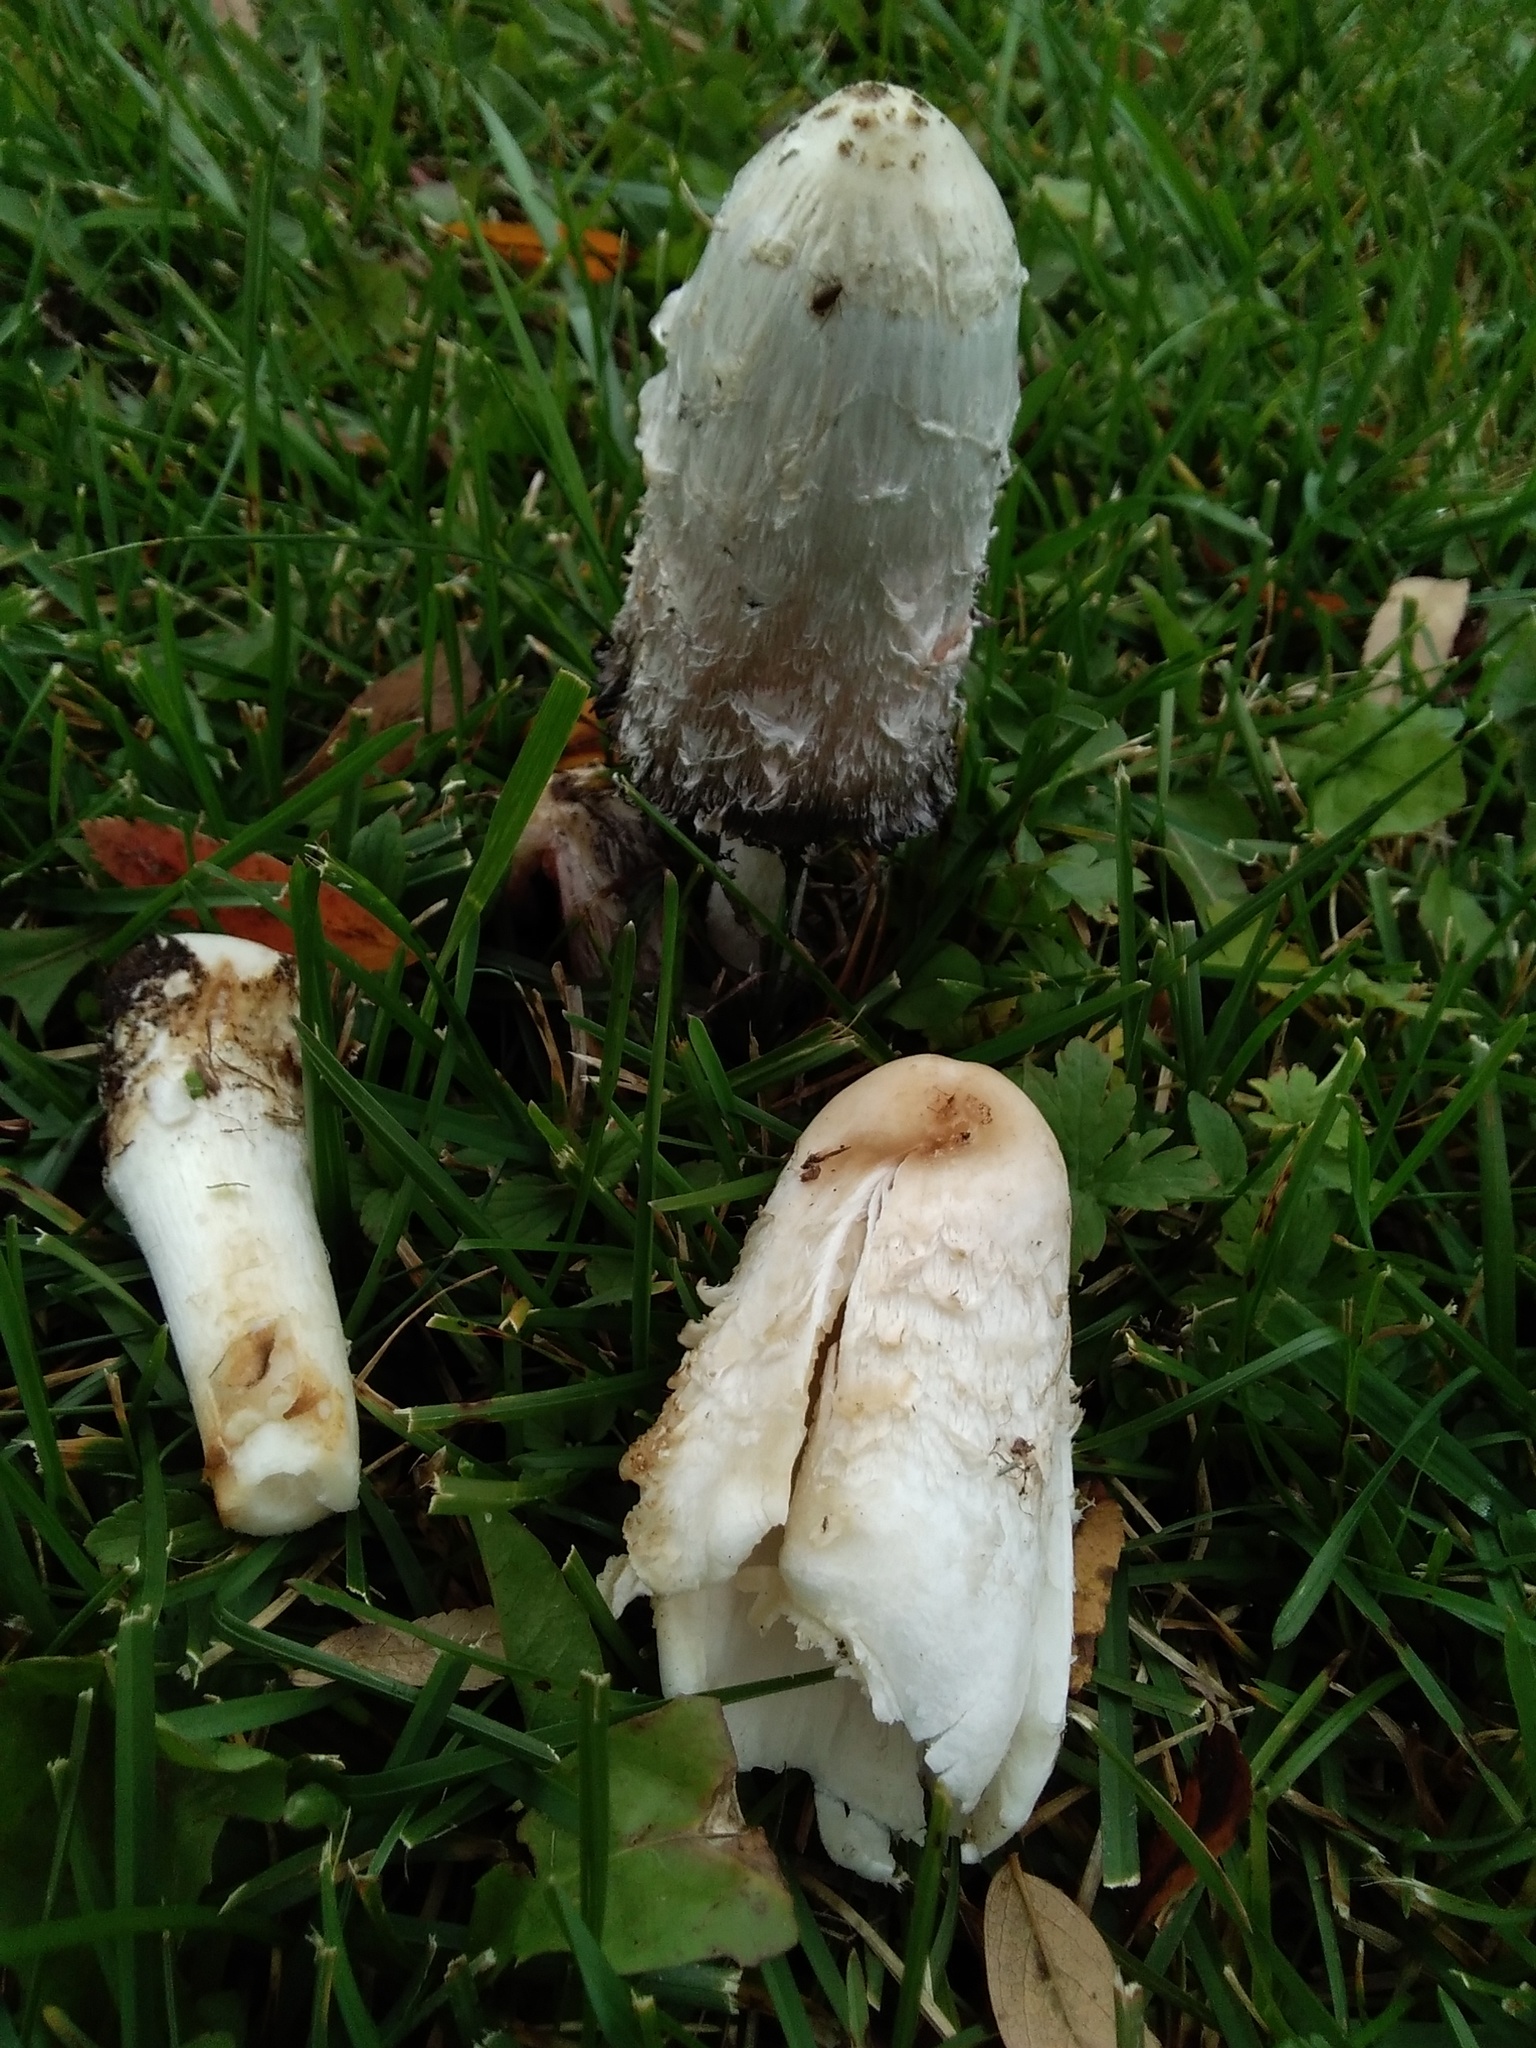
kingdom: Fungi
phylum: Basidiomycota
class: Agaricomycetes
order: Agaricales
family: Agaricaceae
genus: Coprinus
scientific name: Coprinus comatus
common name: Lawyer's wig
